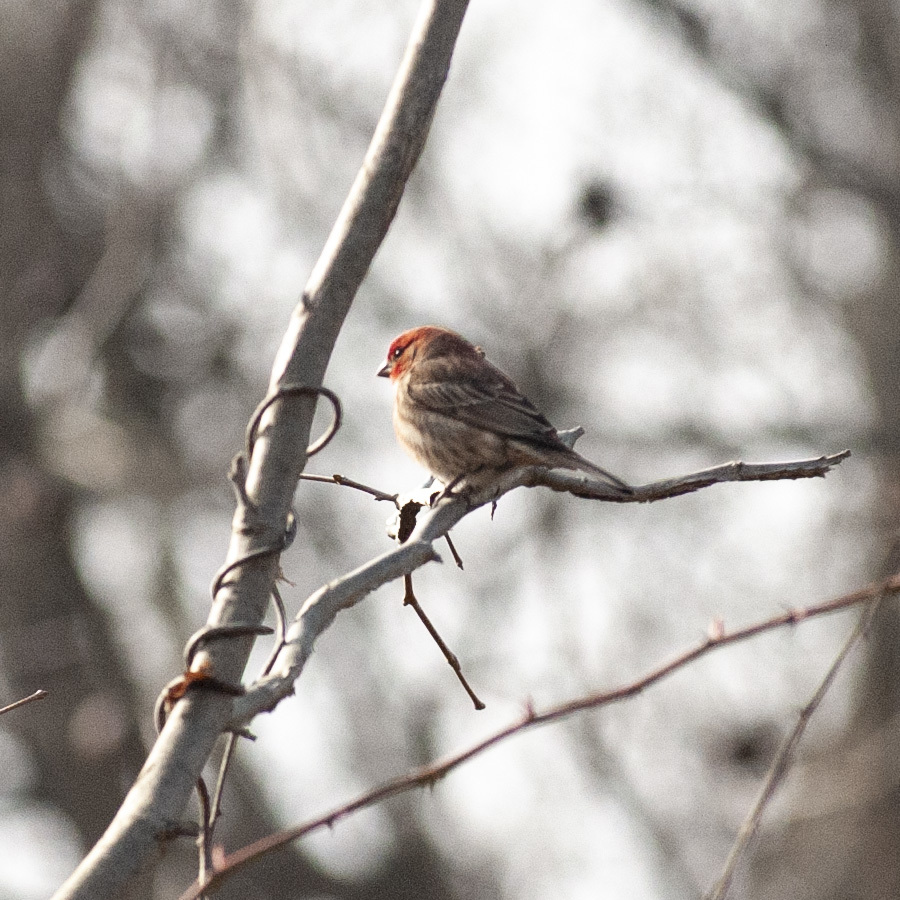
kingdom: Animalia
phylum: Chordata
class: Aves
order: Passeriformes
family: Fringillidae
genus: Haemorhous
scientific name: Haemorhous mexicanus
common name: House finch
